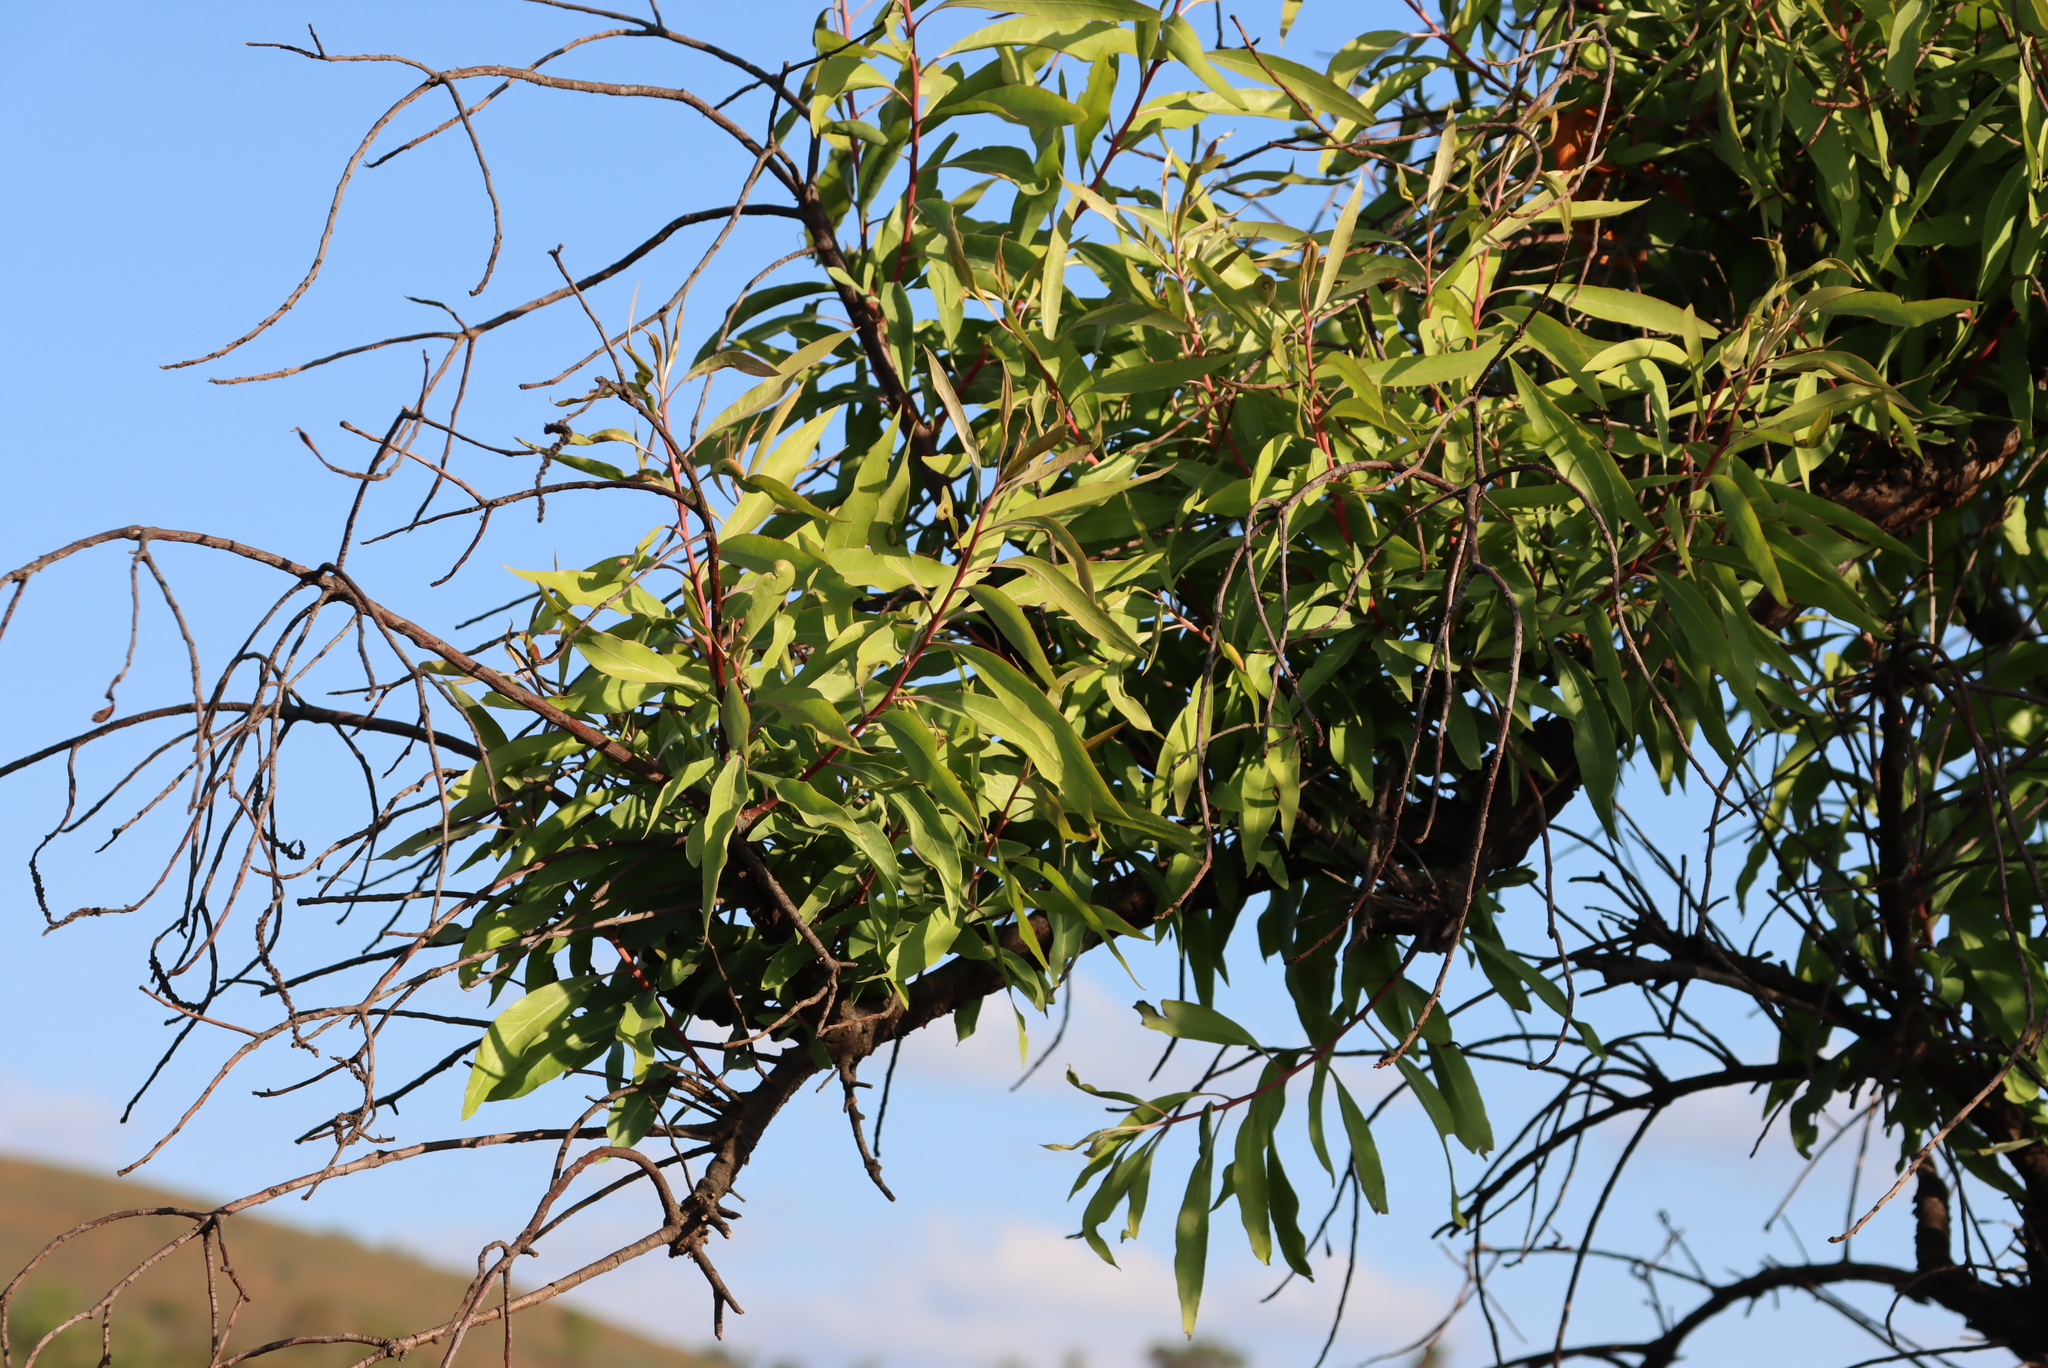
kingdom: Plantae
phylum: Tracheophyta
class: Magnoliopsida
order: Proteales
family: Proteaceae
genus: Faurea
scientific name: Faurea saligna
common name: African bean
